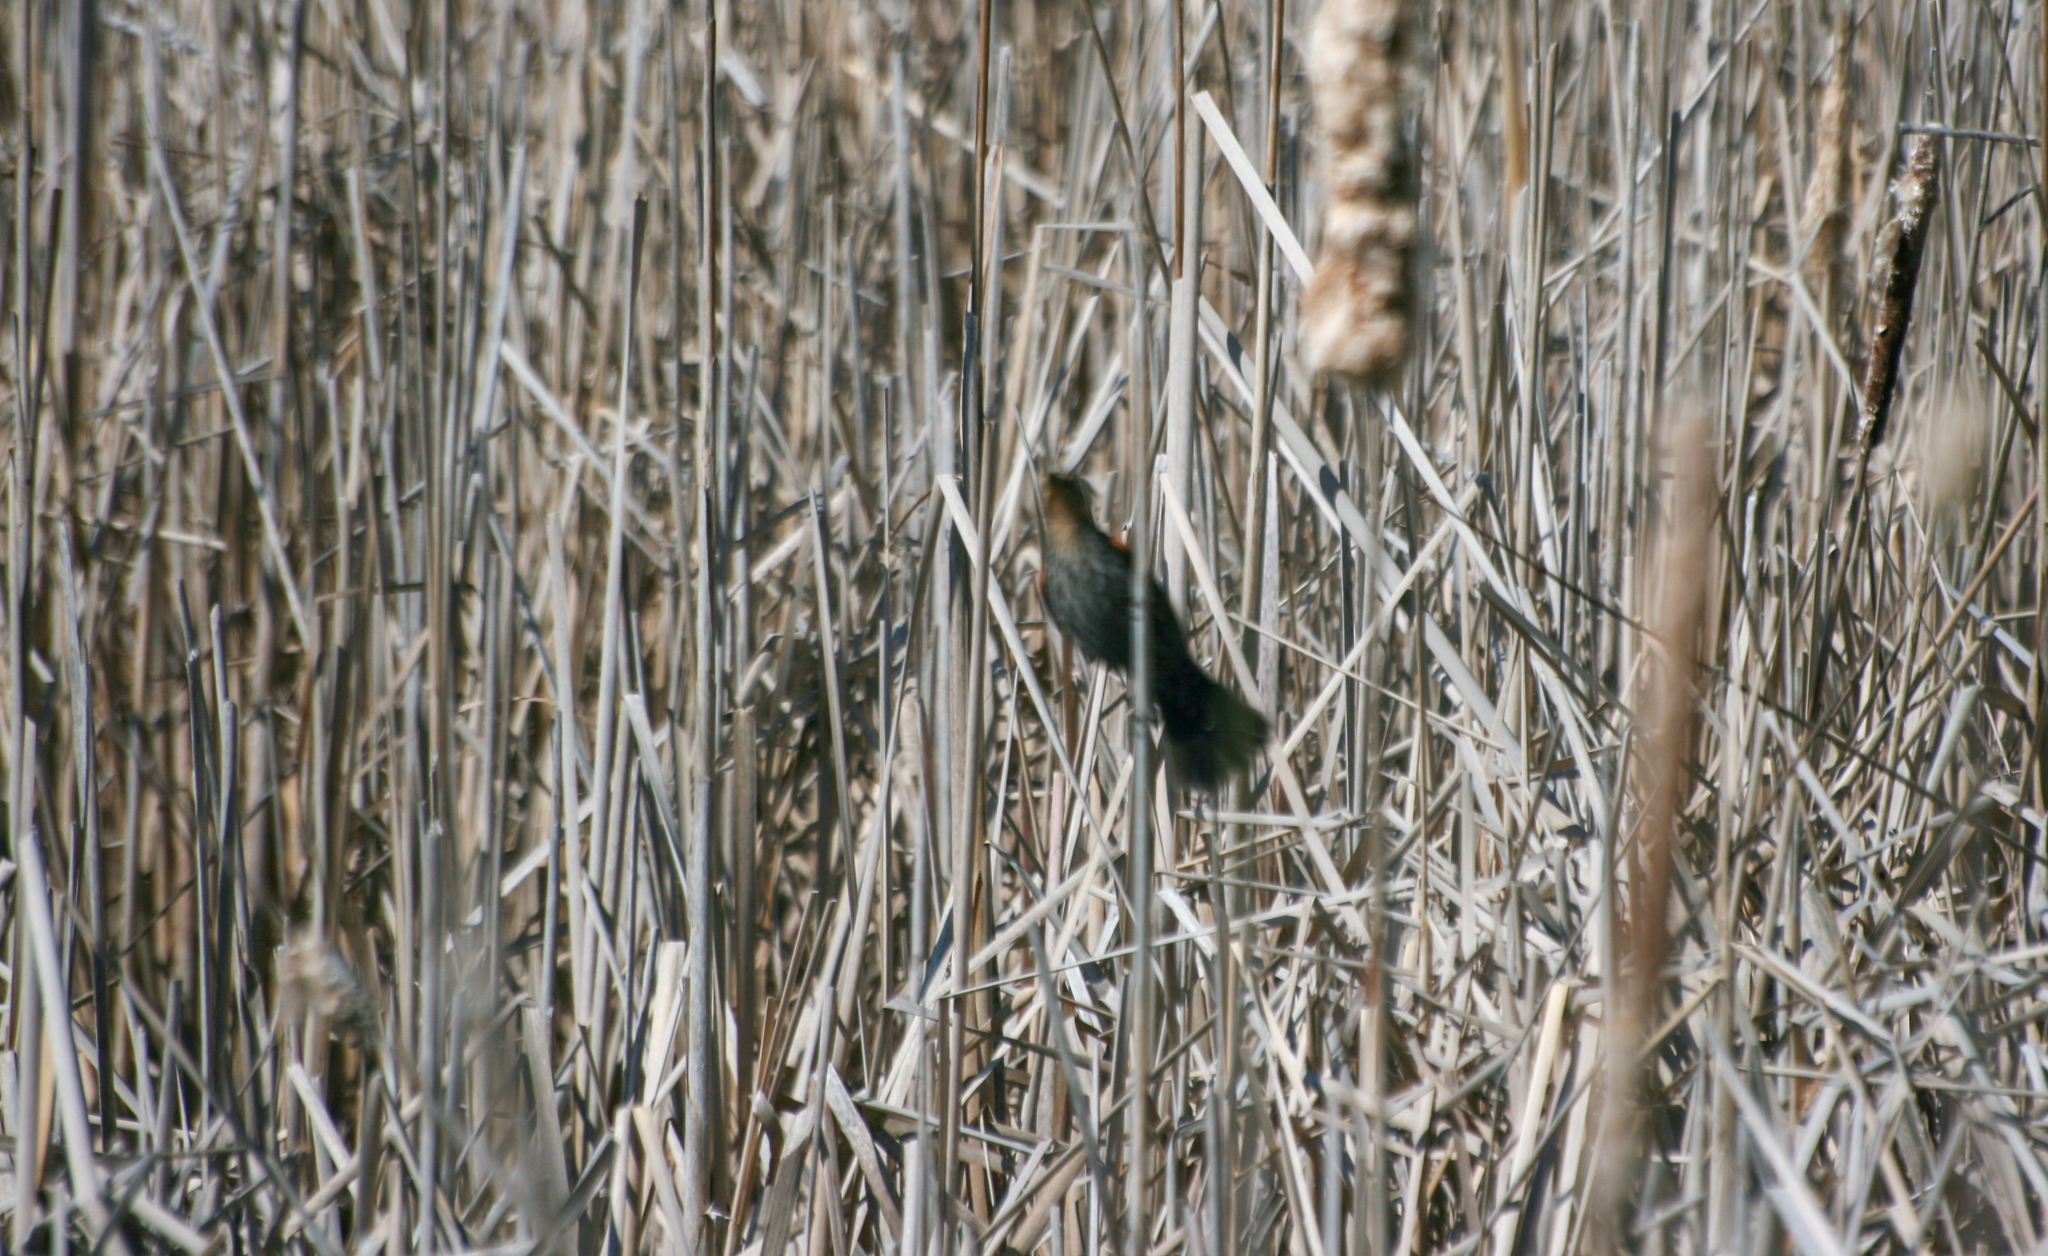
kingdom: Animalia
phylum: Chordata
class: Aves
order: Passeriformes
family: Icteridae
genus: Agelaius
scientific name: Agelaius phoeniceus
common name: Red-winged blackbird
